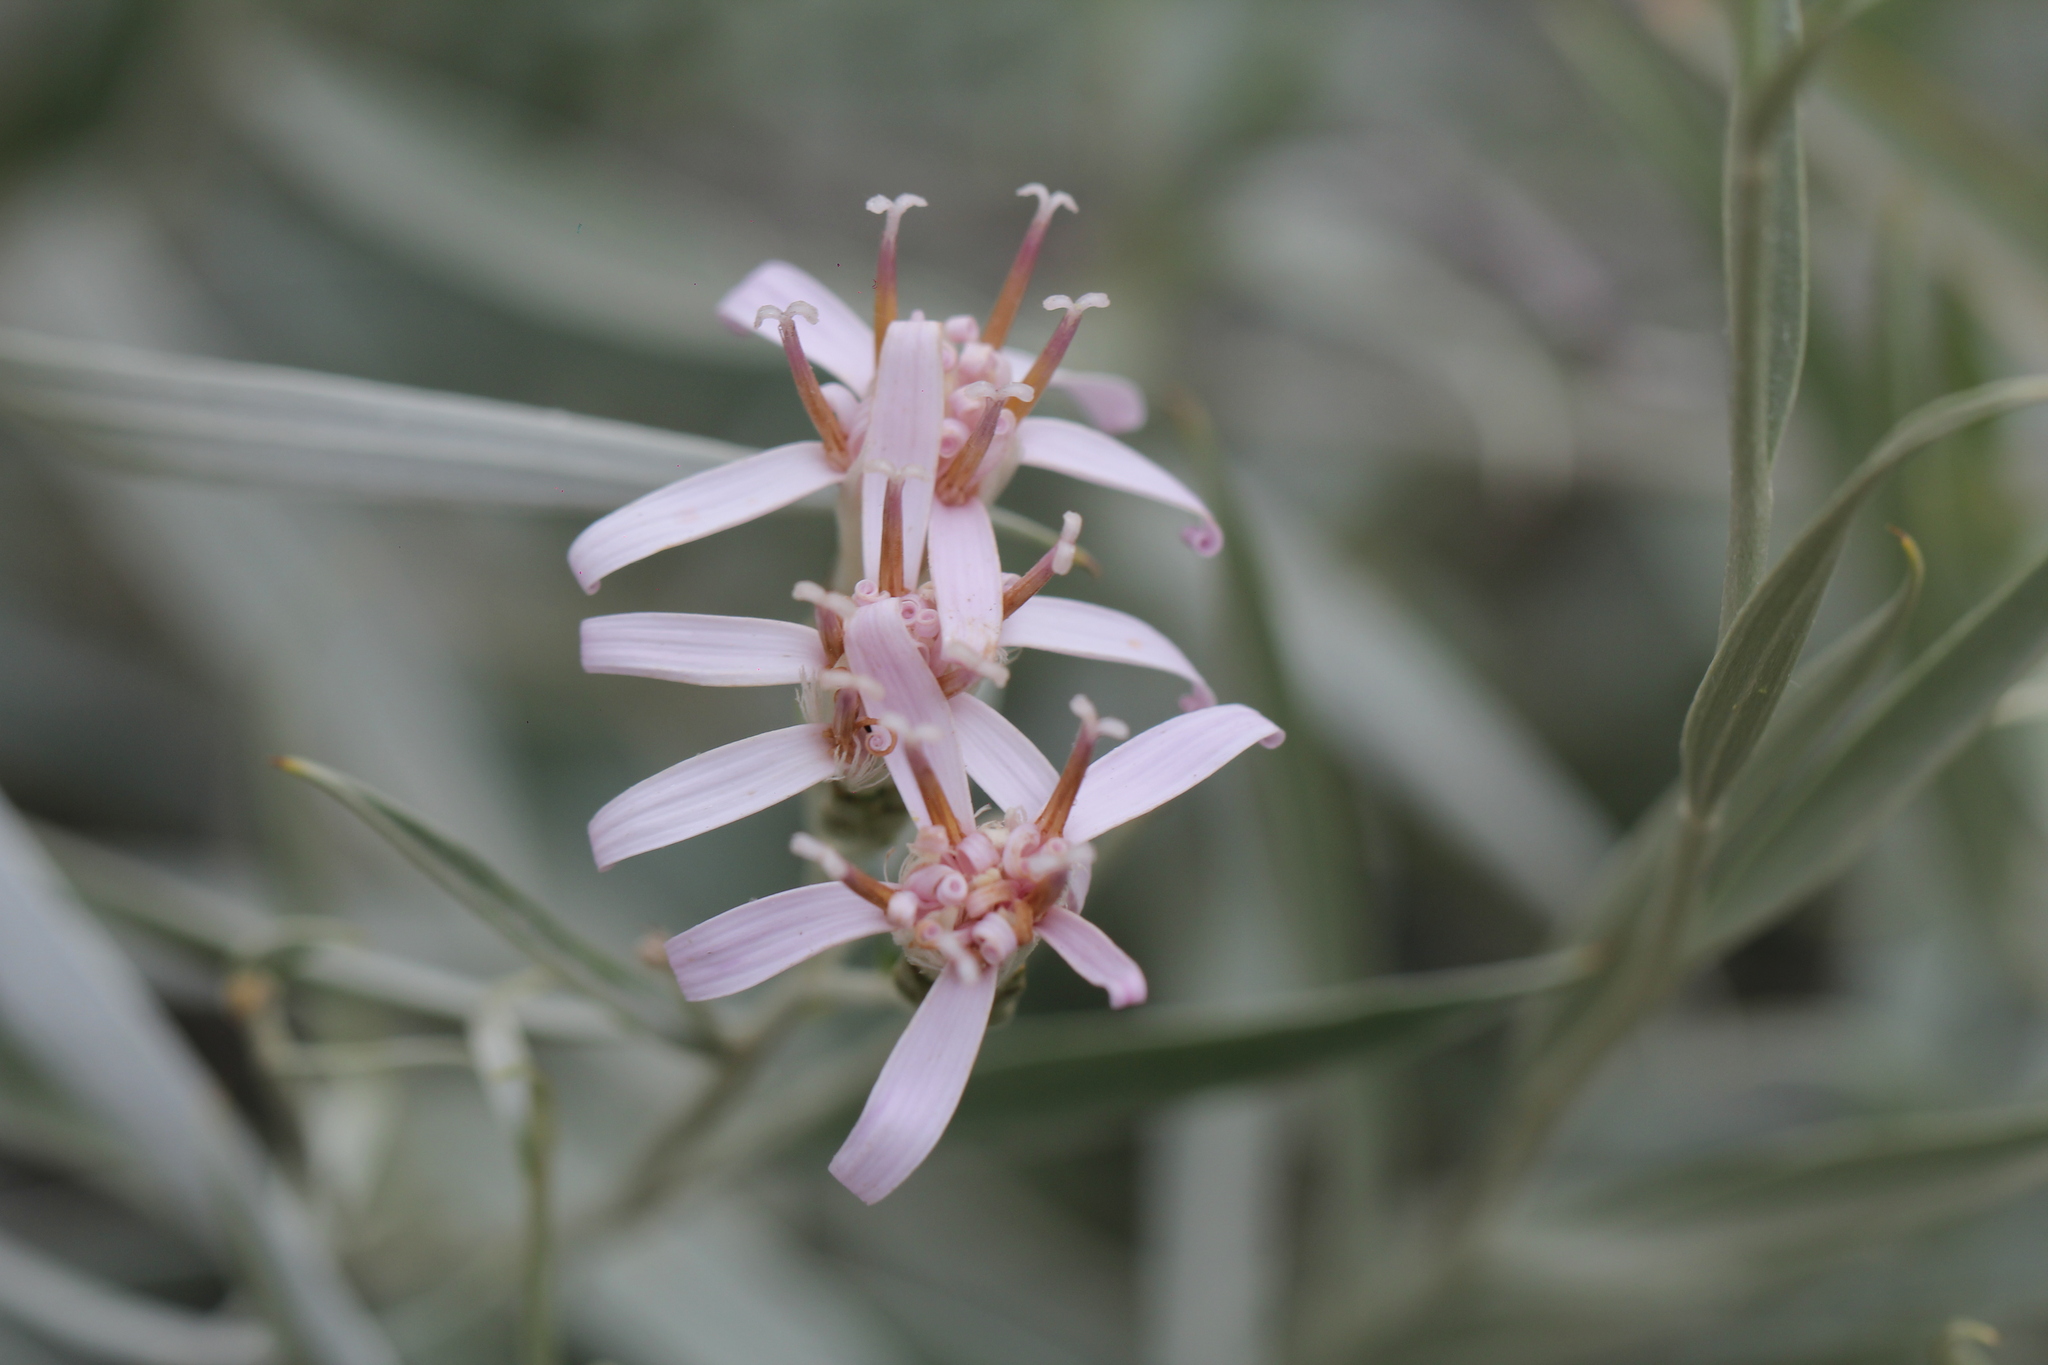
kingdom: Plantae
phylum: Tracheophyta
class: Magnoliopsida
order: Asterales
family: Asteraceae
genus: Hyalis
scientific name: Hyalis argentea
